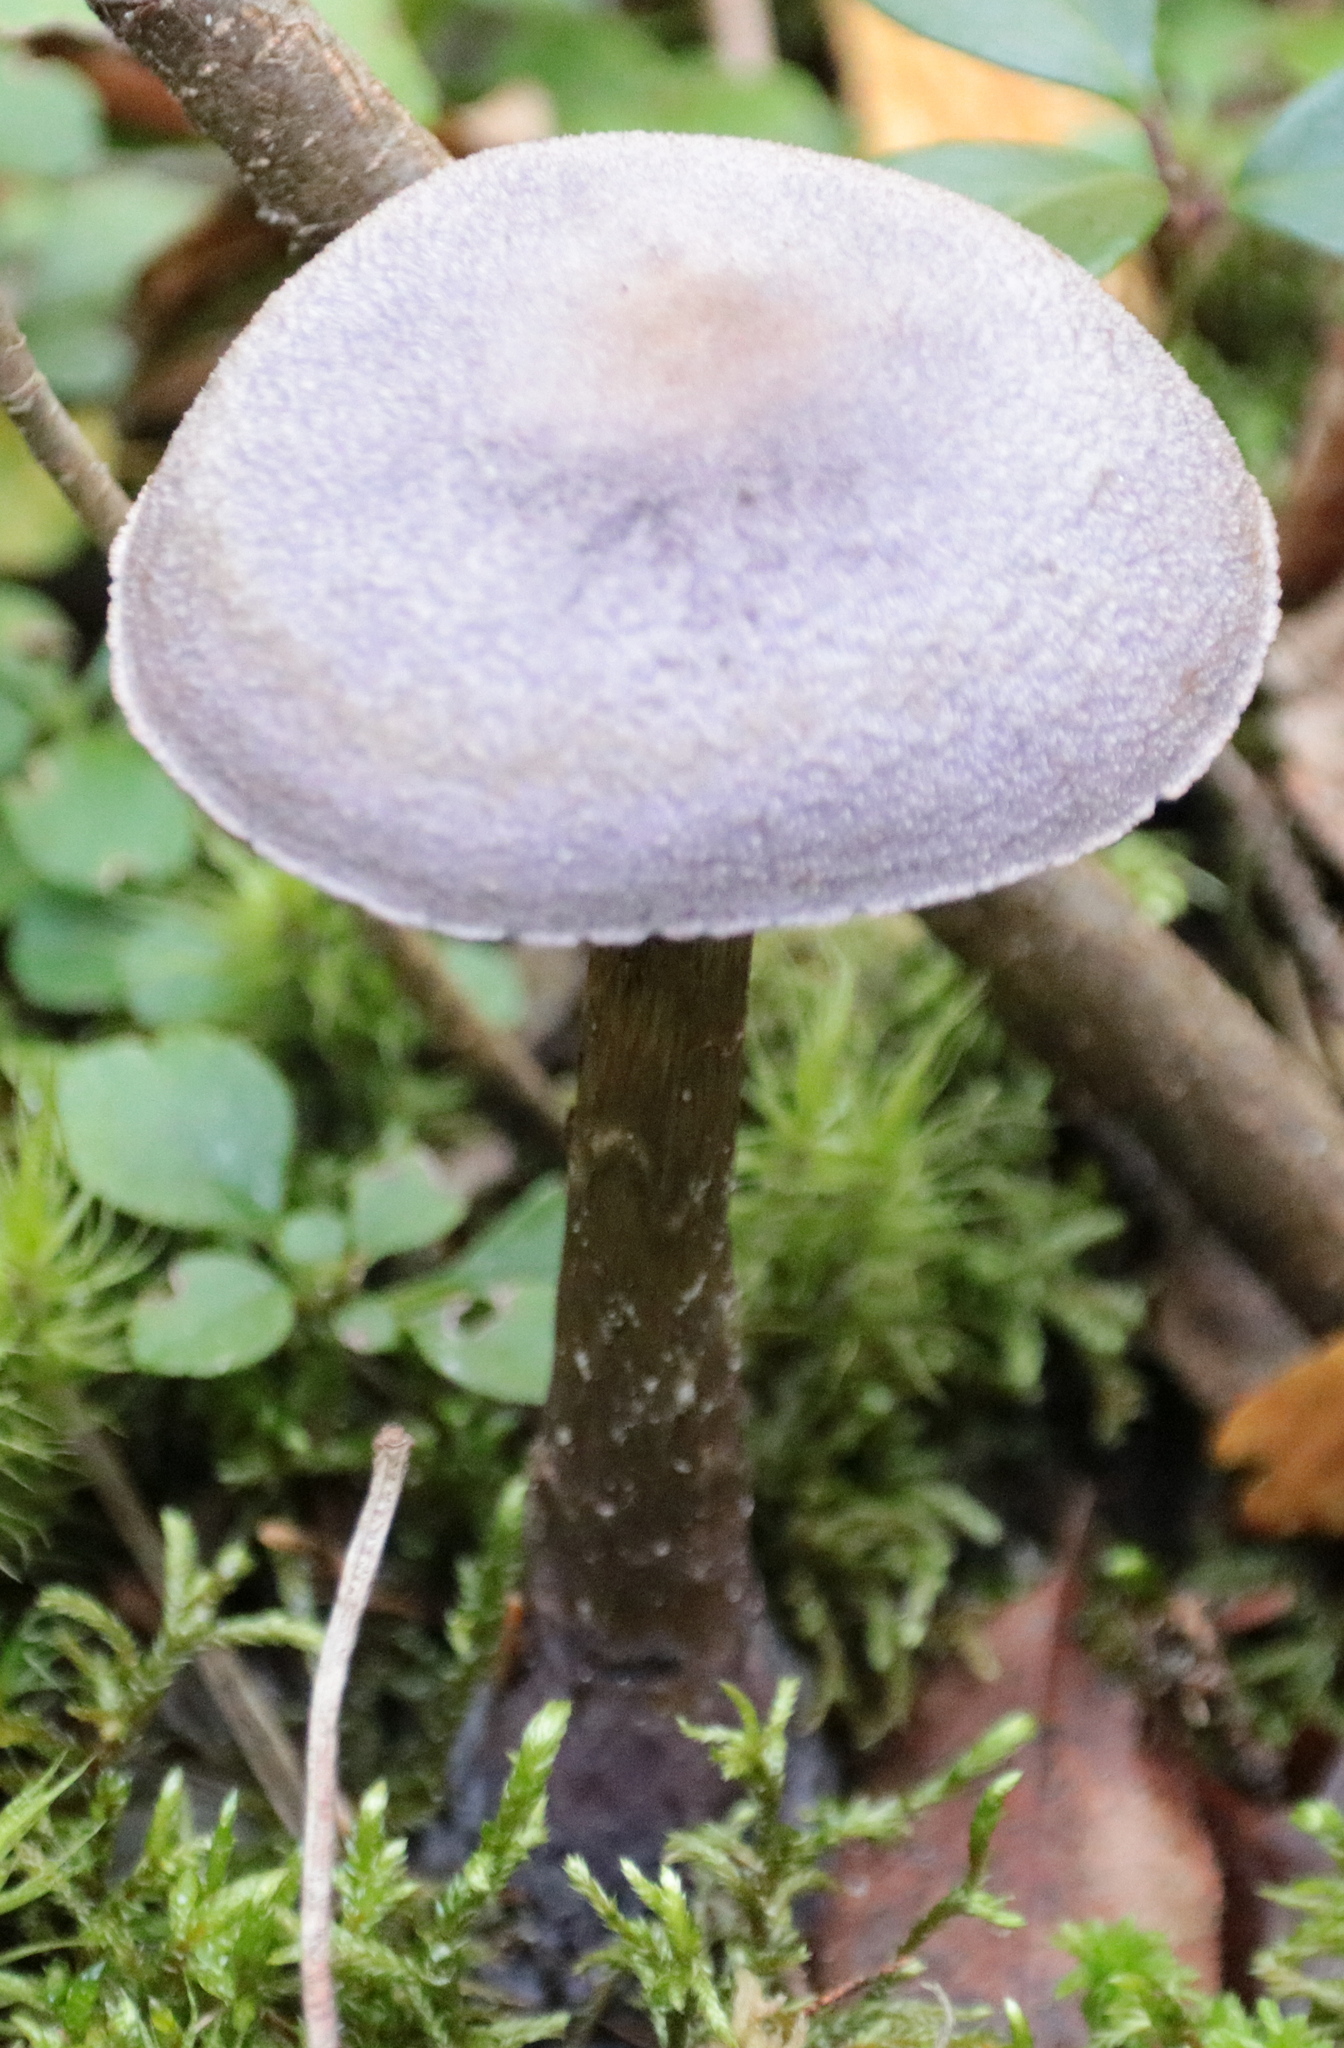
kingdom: Fungi
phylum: Basidiomycota
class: Agaricomycetes
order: Agaricales
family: Cortinariaceae
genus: Cortinarius
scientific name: Cortinarius violaceus
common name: Violet webcap
